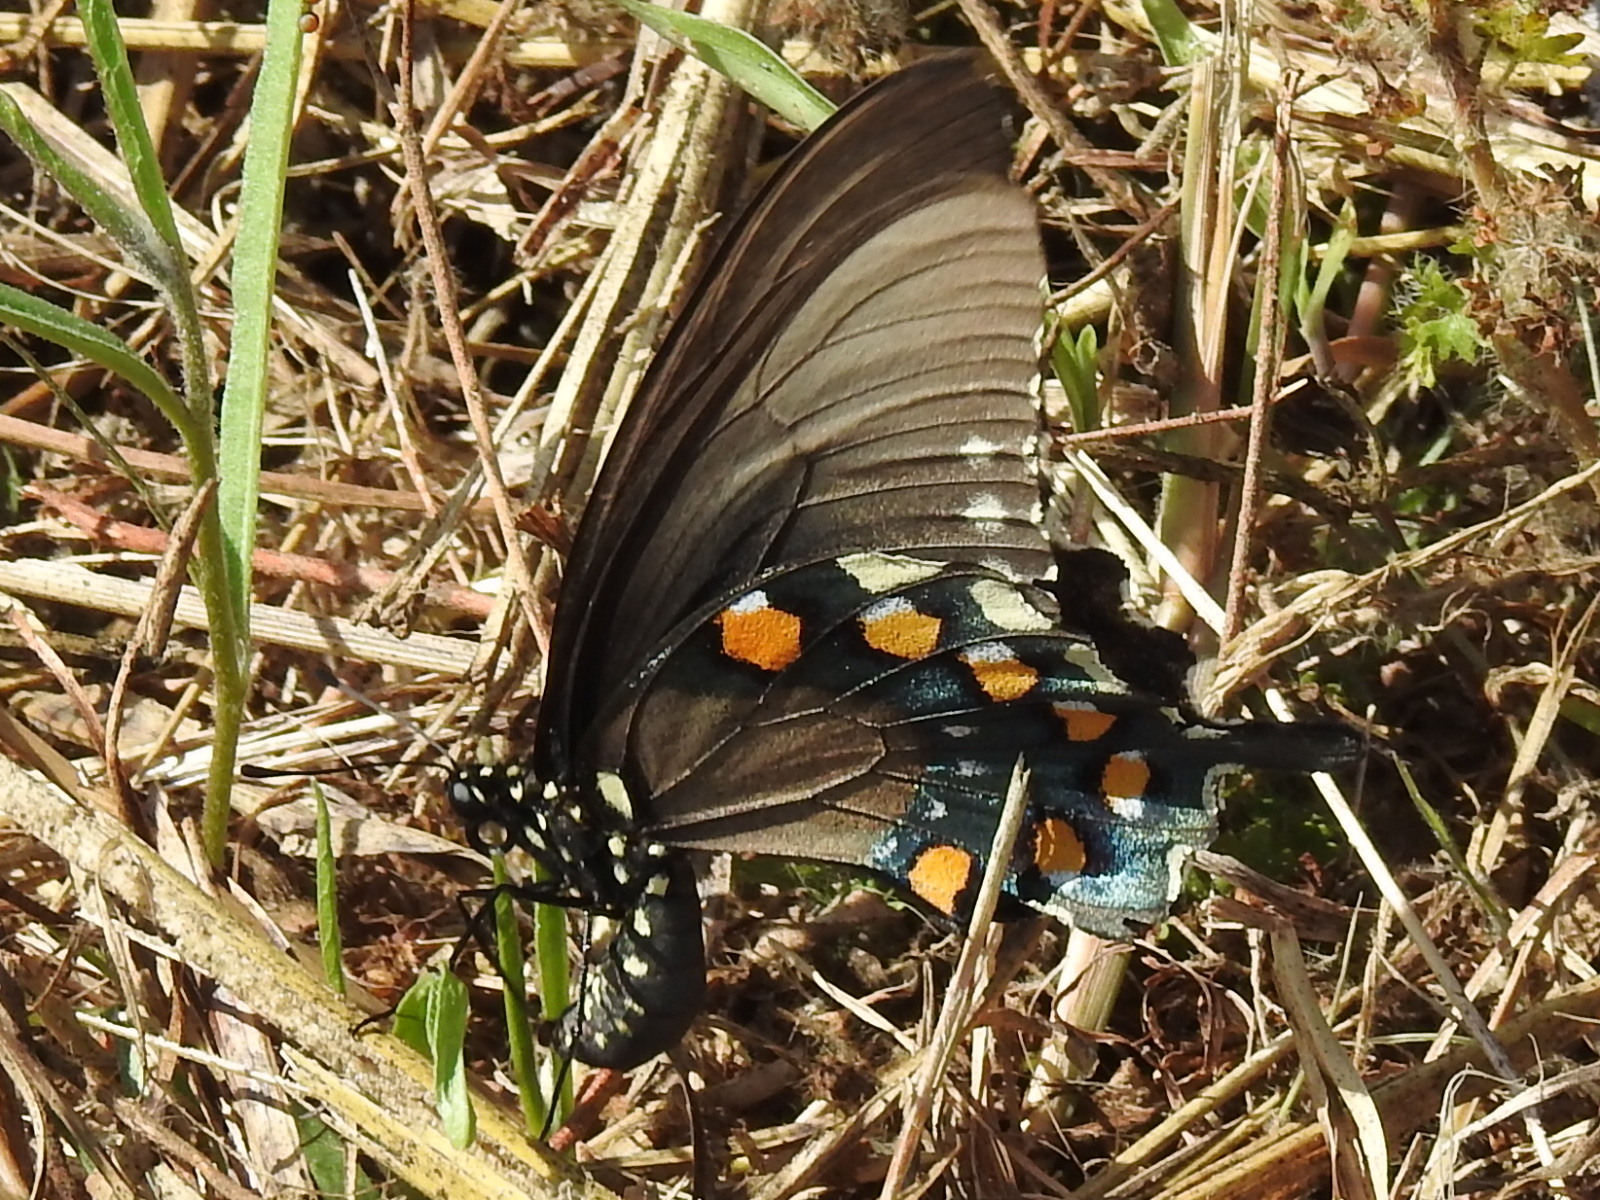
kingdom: Animalia
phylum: Arthropoda
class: Insecta
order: Lepidoptera
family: Papilionidae
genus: Battus
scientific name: Battus philenor
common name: Pipevine swallowtail
